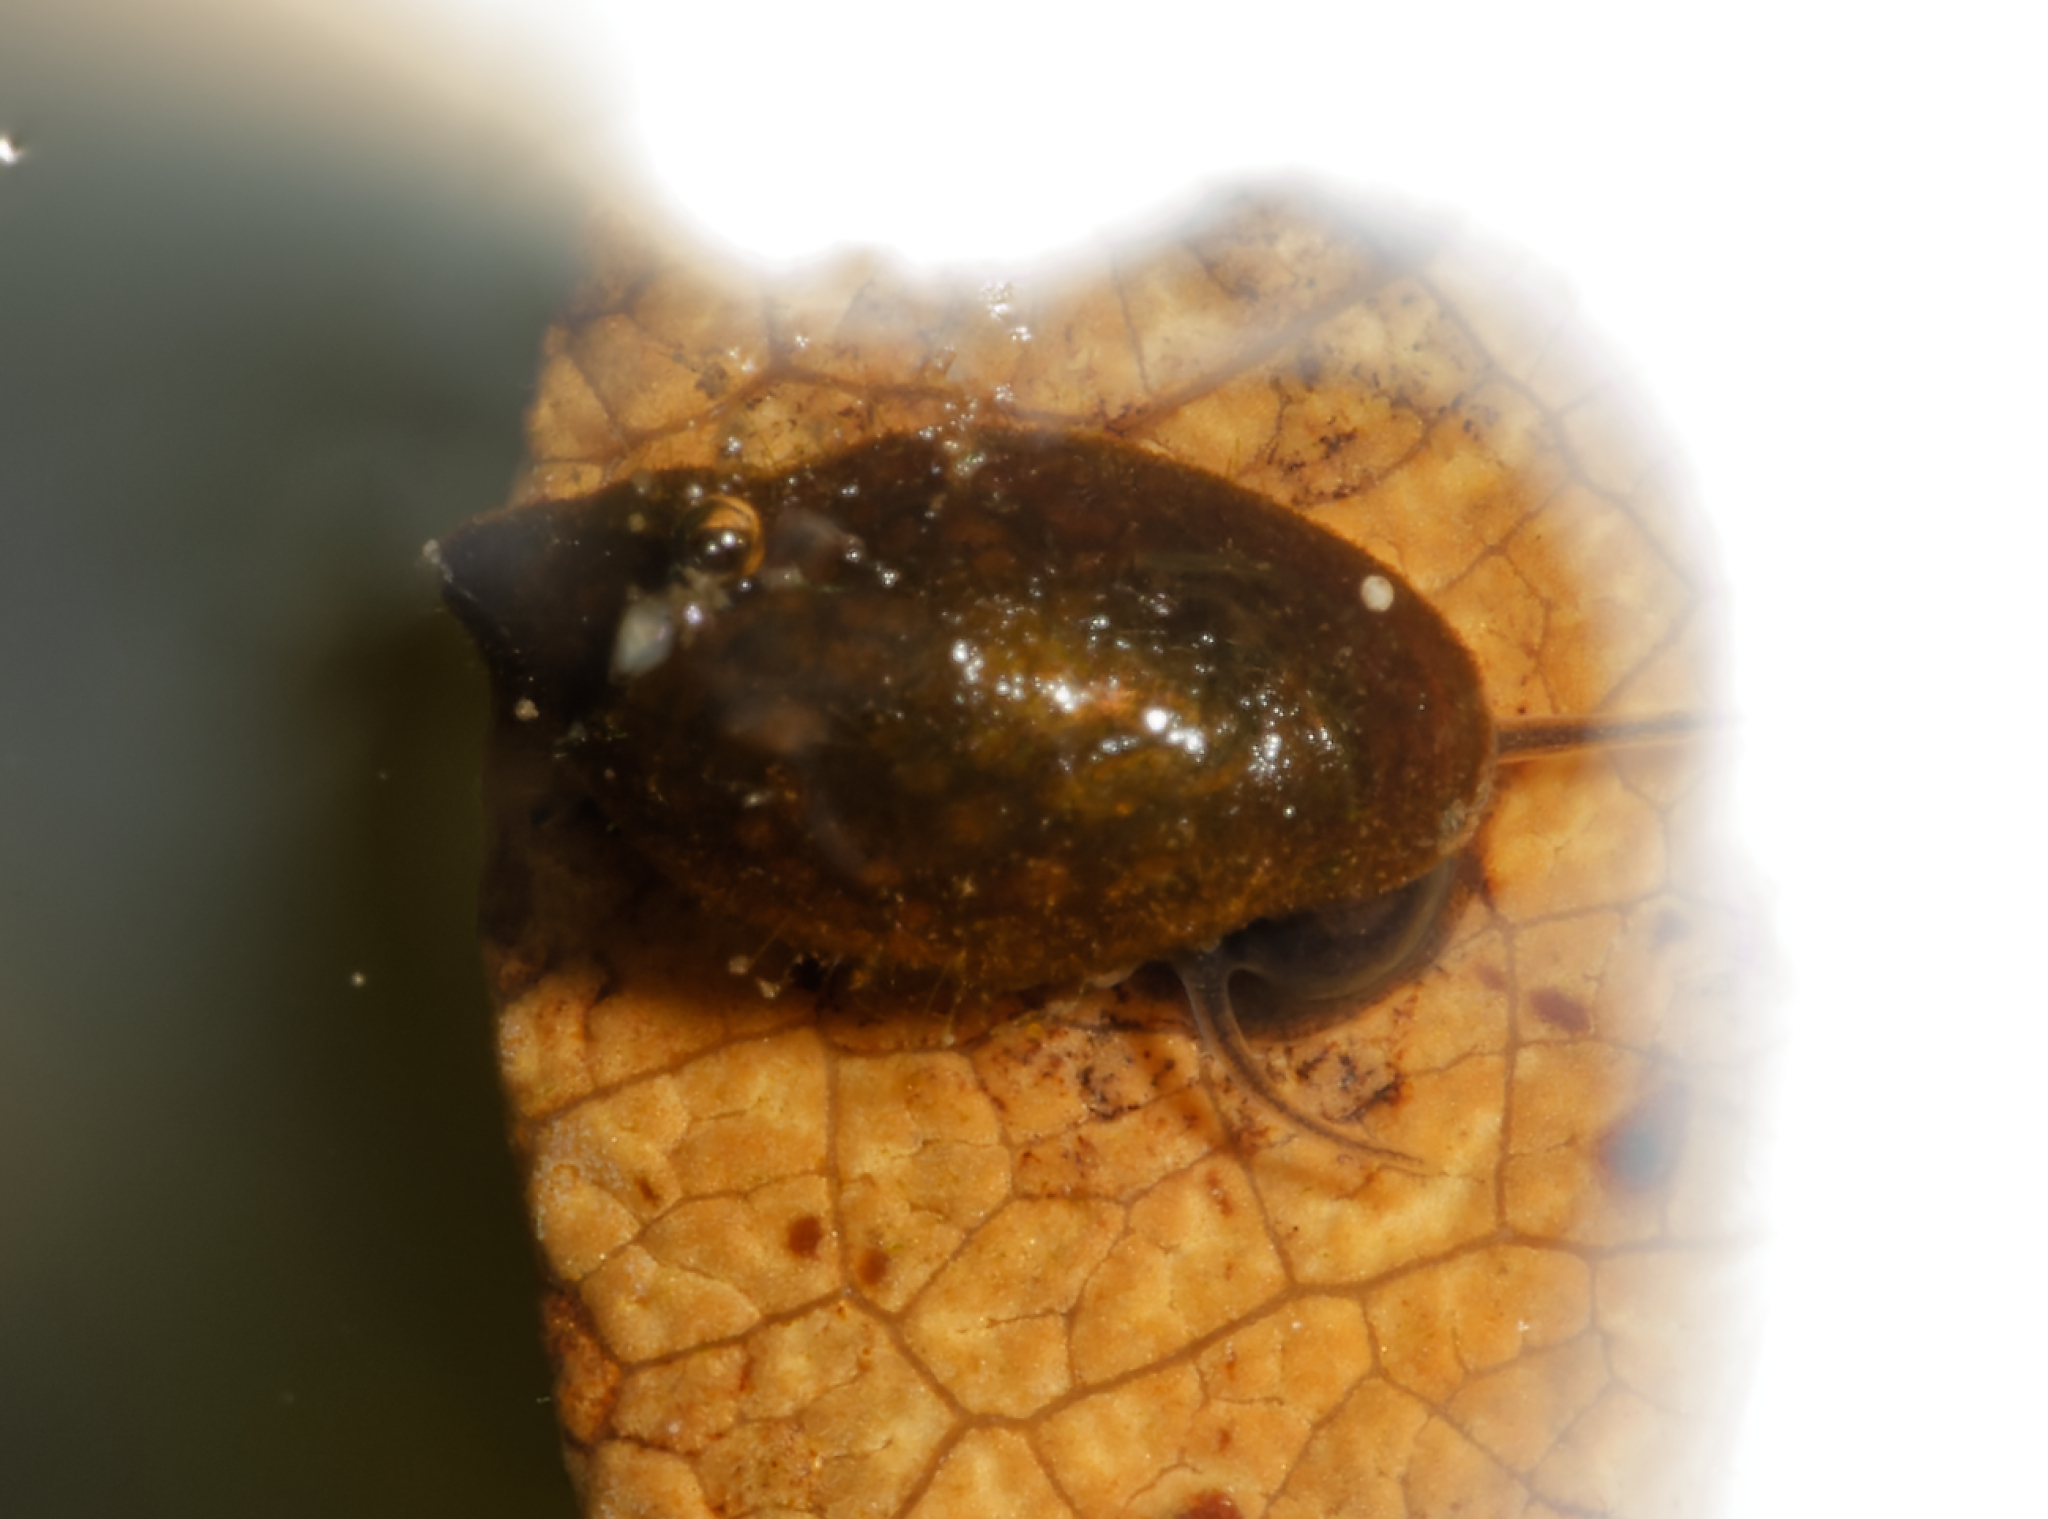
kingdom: Animalia
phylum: Mollusca
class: Gastropoda
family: Physidae
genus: Physella
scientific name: Physella acuta
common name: European physa
